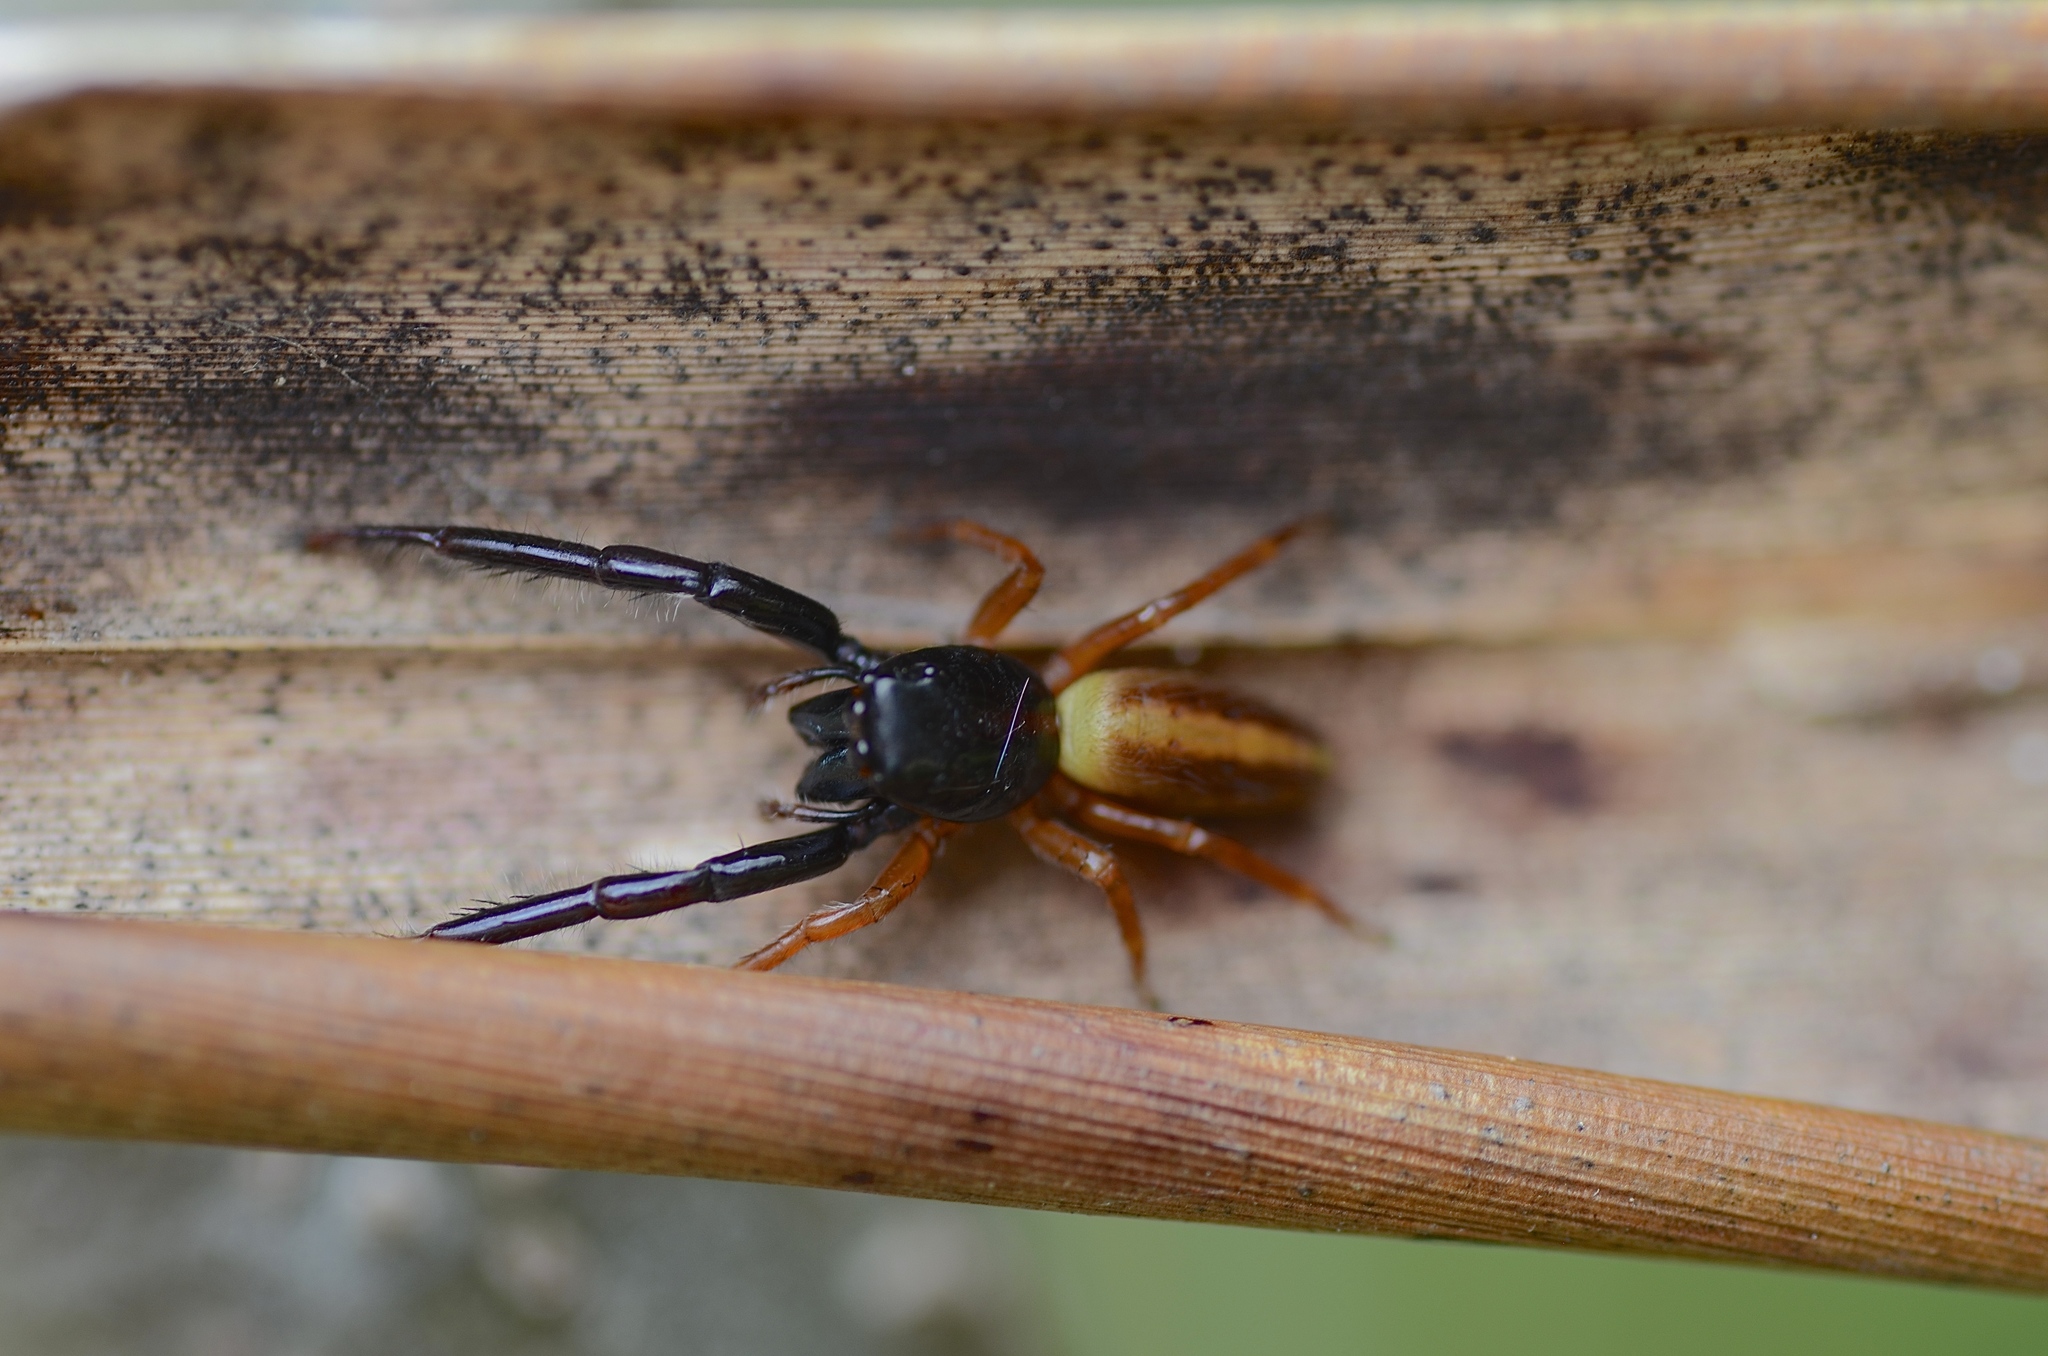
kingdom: Animalia
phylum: Arthropoda
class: Arachnida
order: Araneae
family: Salticidae
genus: Trite
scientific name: Trite planiceps
